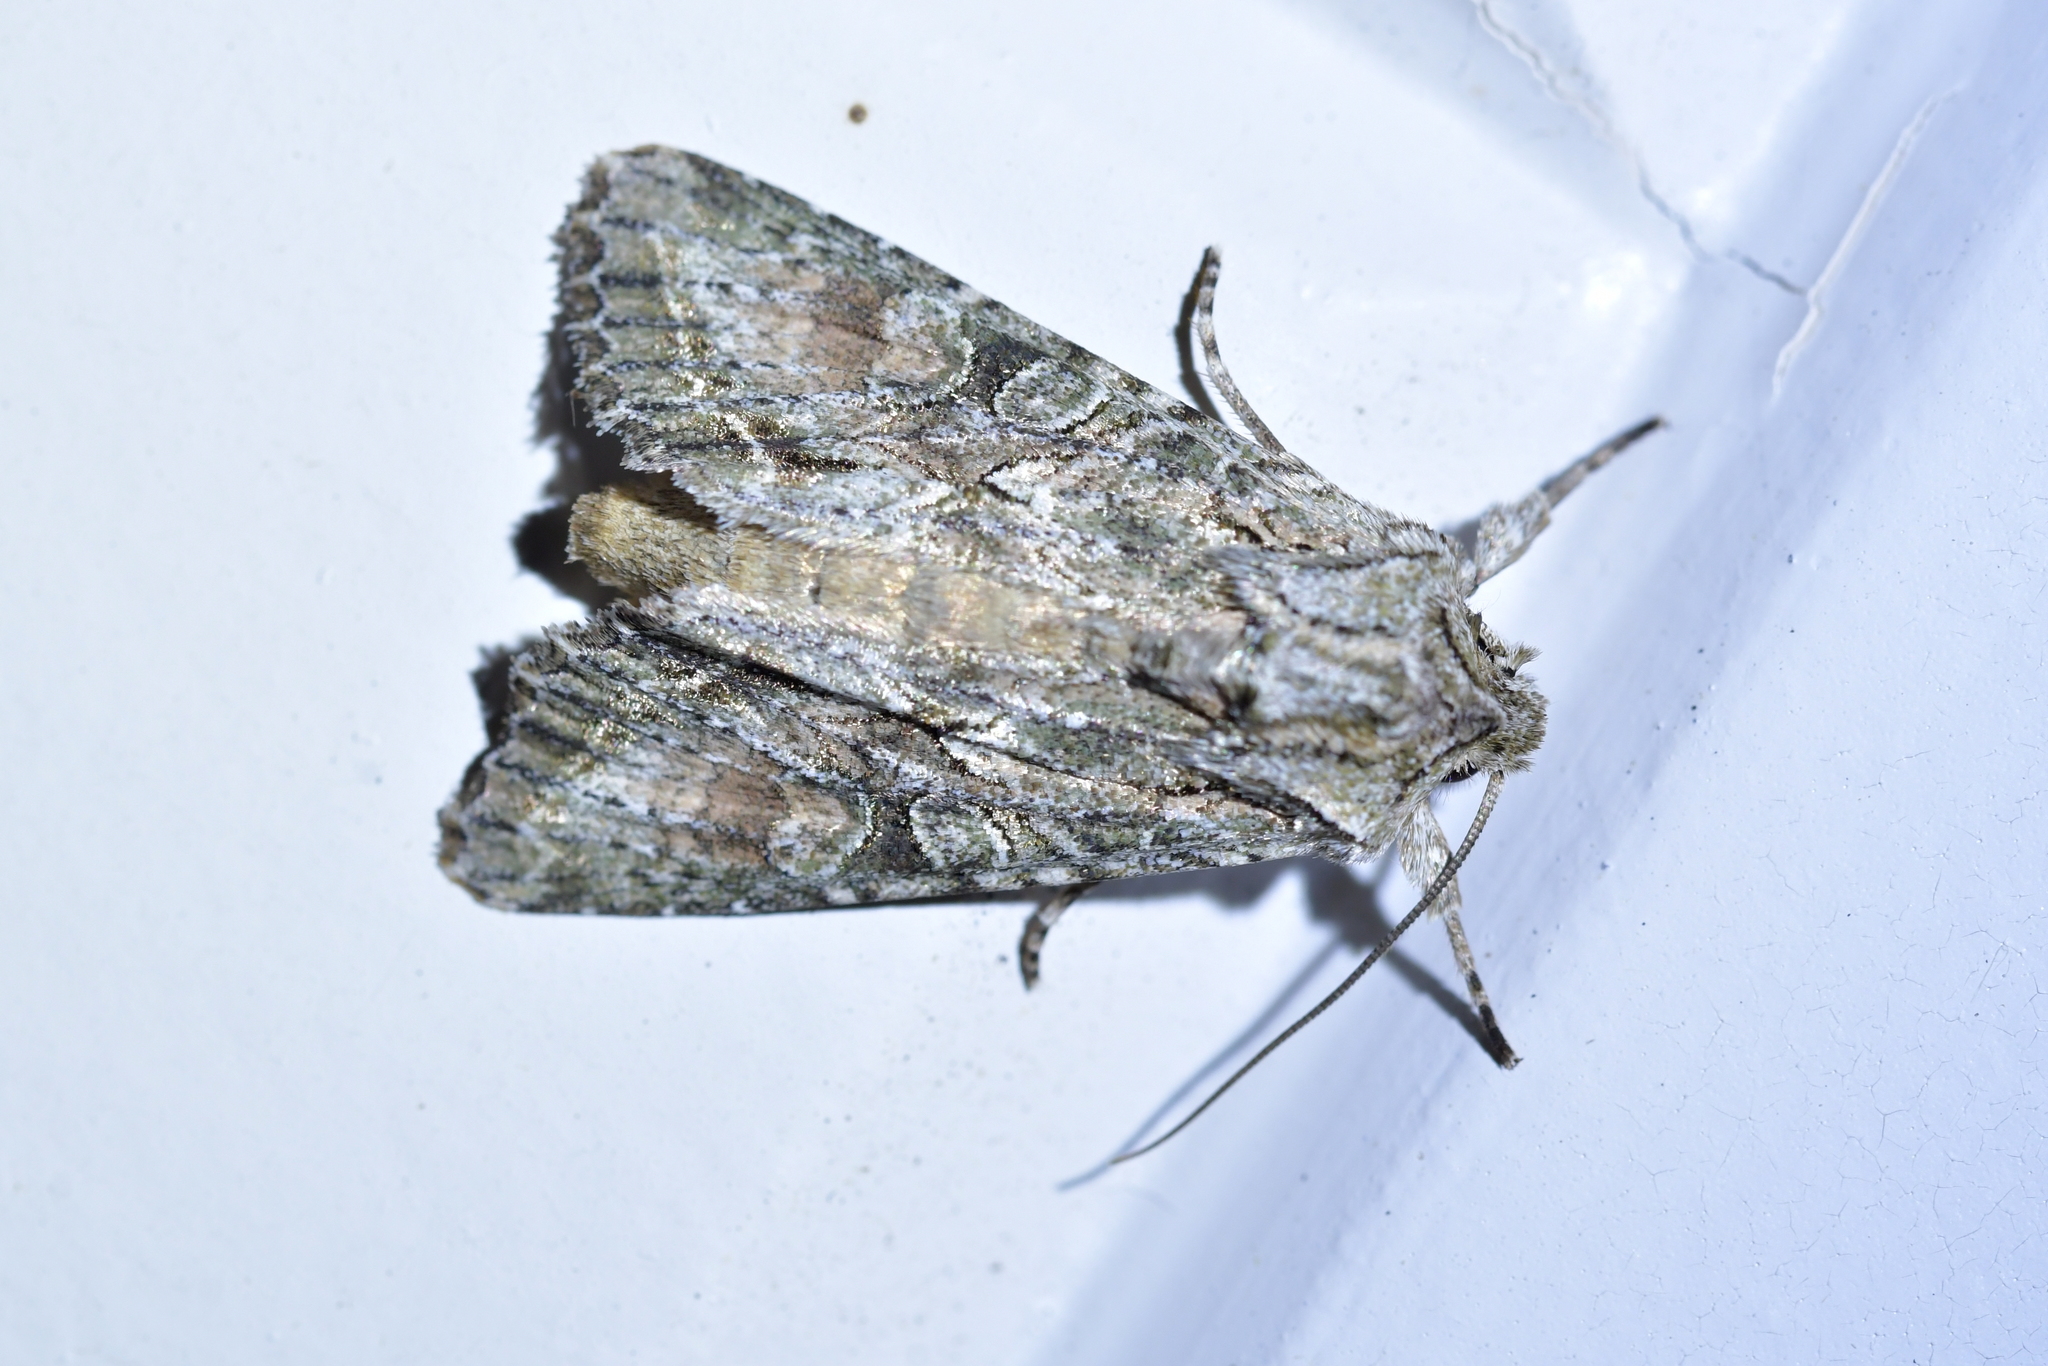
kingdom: Animalia
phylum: Arthropoda
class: Insecta
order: Lepidoptera
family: Noctuidae
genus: Ichneutica
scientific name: Ichneutica mutans
